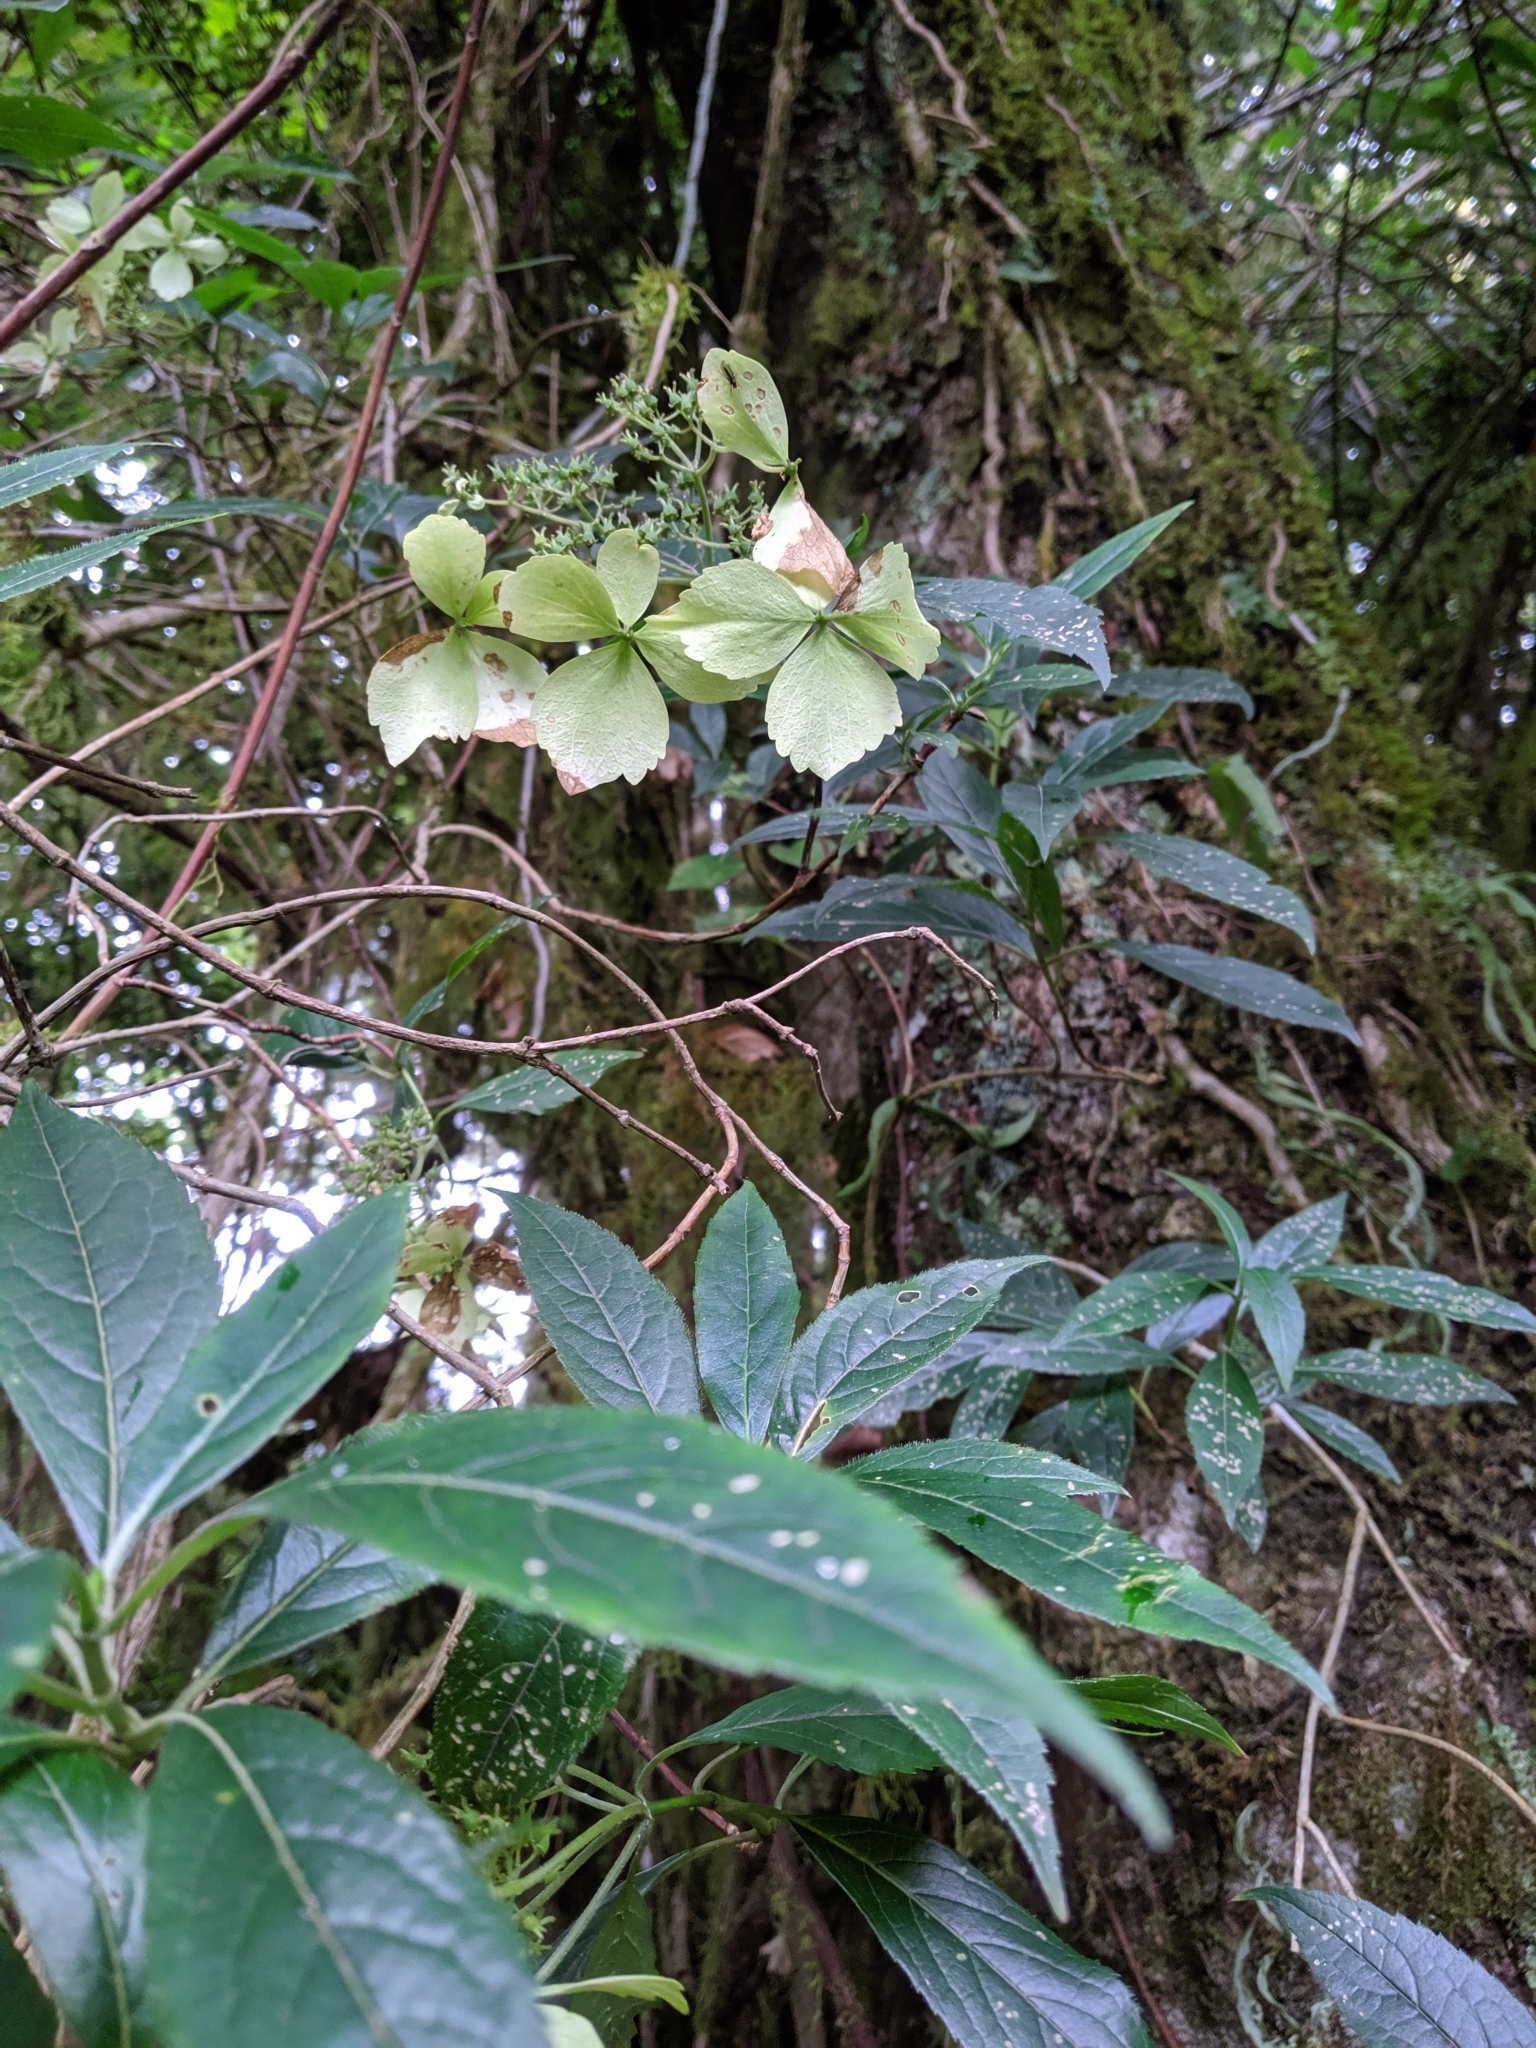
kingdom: Plantae
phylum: Tracheophyta
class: Magnoliopsida
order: Cornales
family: Hydrangeaceae
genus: Hydrangea
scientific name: Hydrangea chinensis
